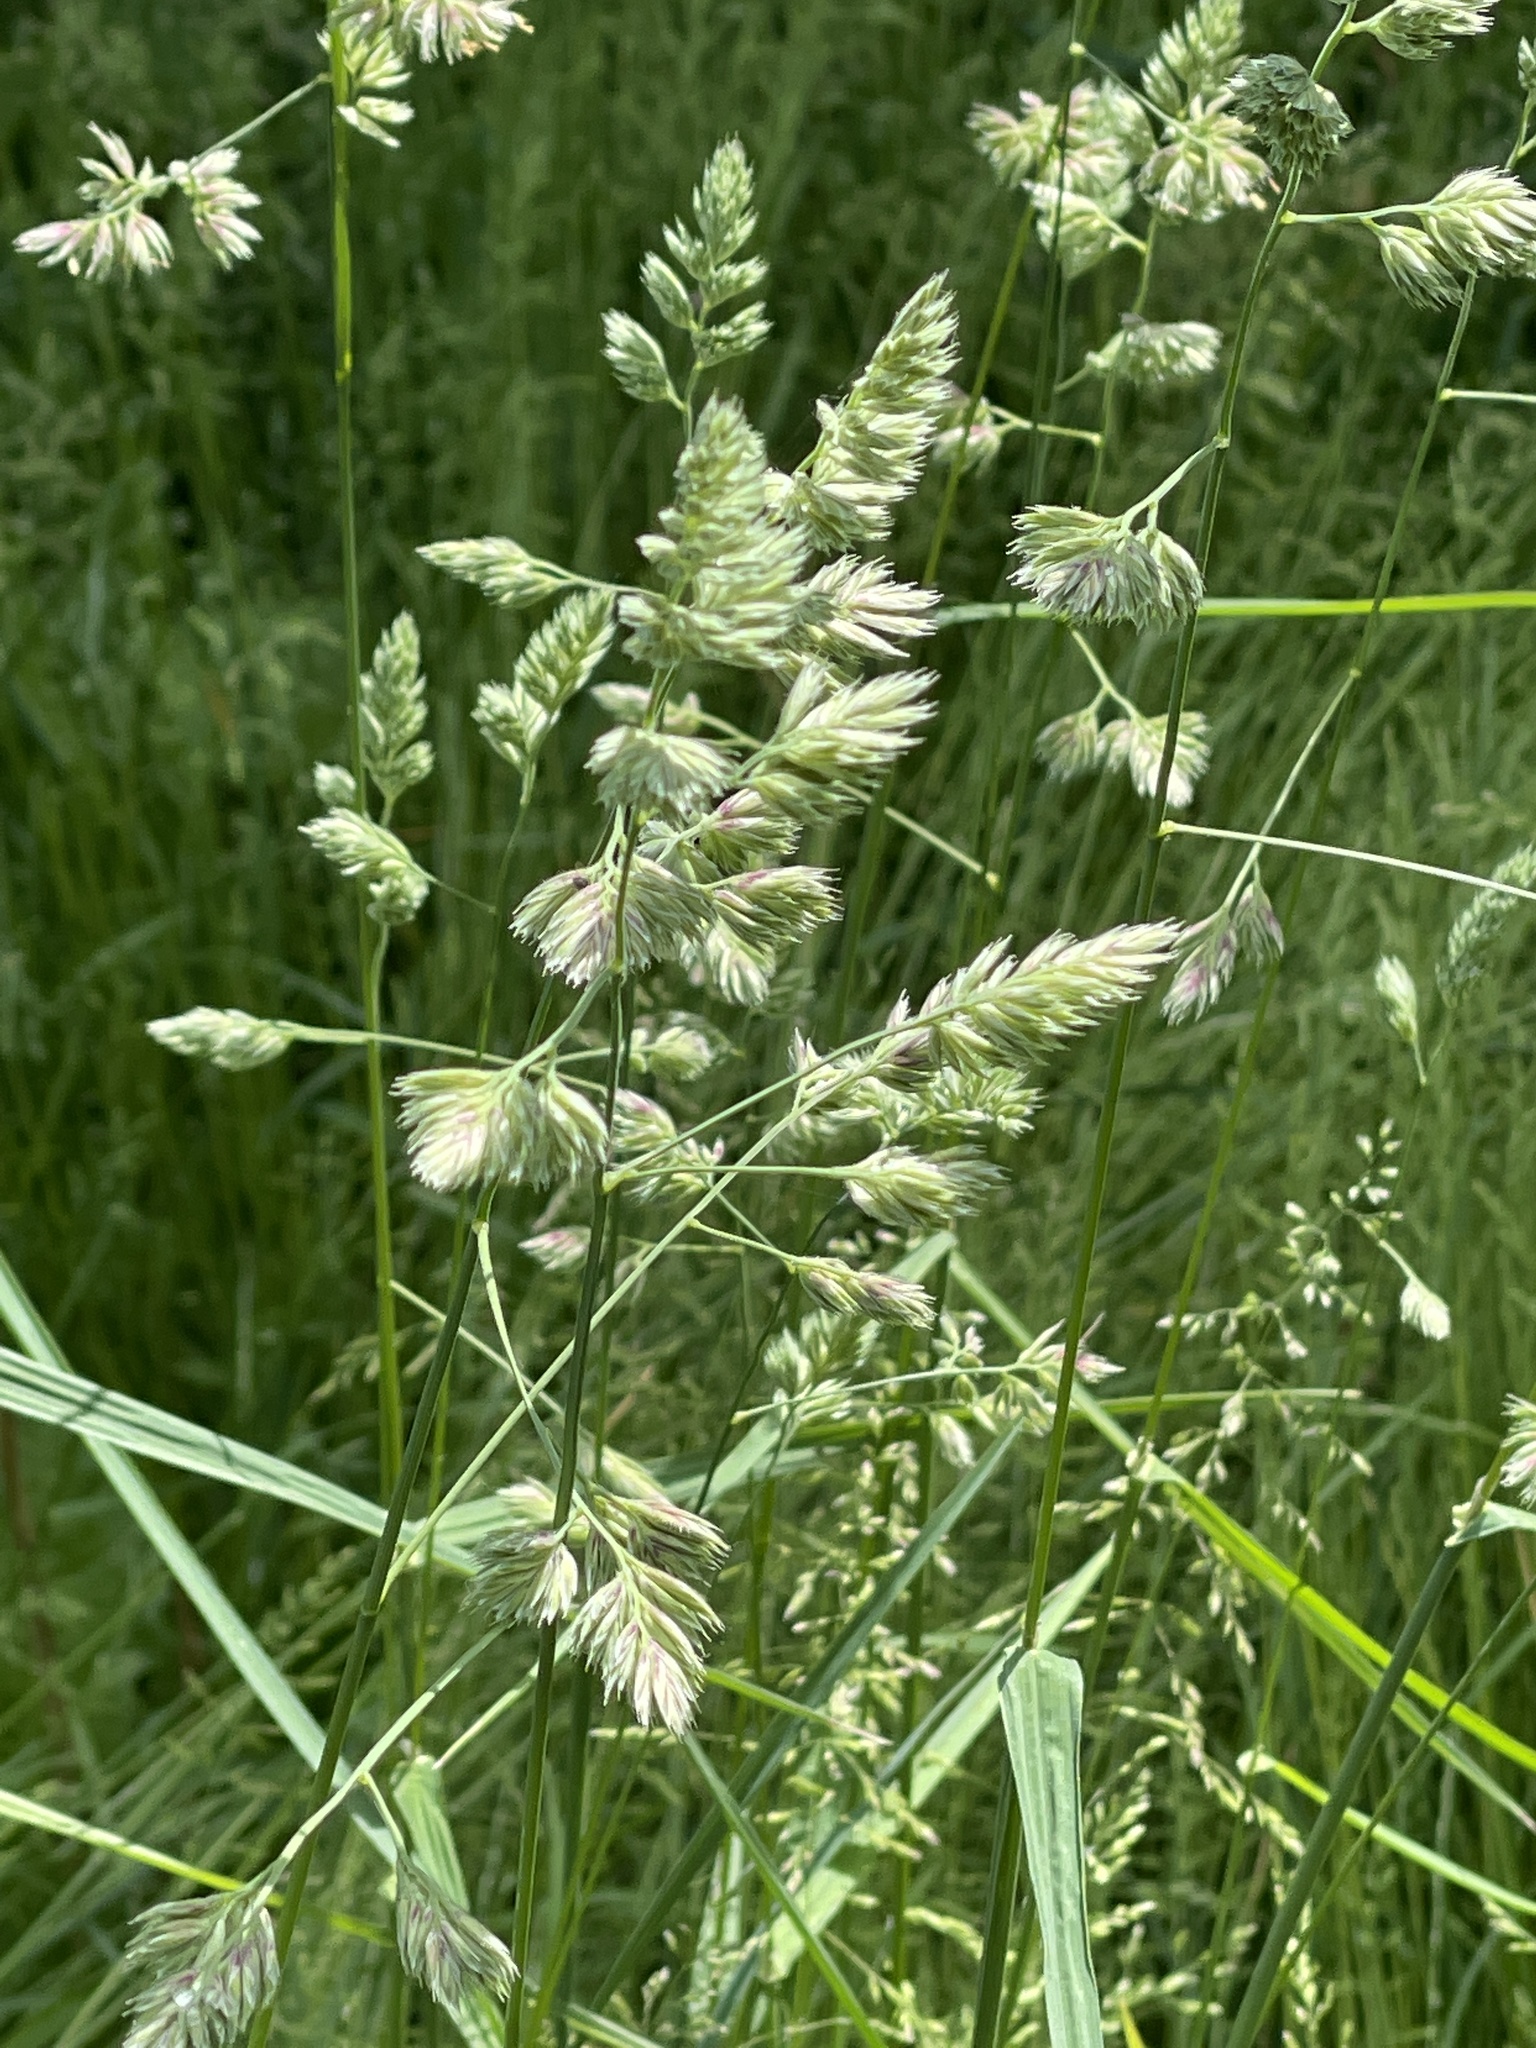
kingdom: Plantae
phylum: Tracheophyta
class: Liliopsida
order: Poales
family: Poaceae
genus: Dactylis
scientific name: Dactylis glomerata
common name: Orchardgrass
